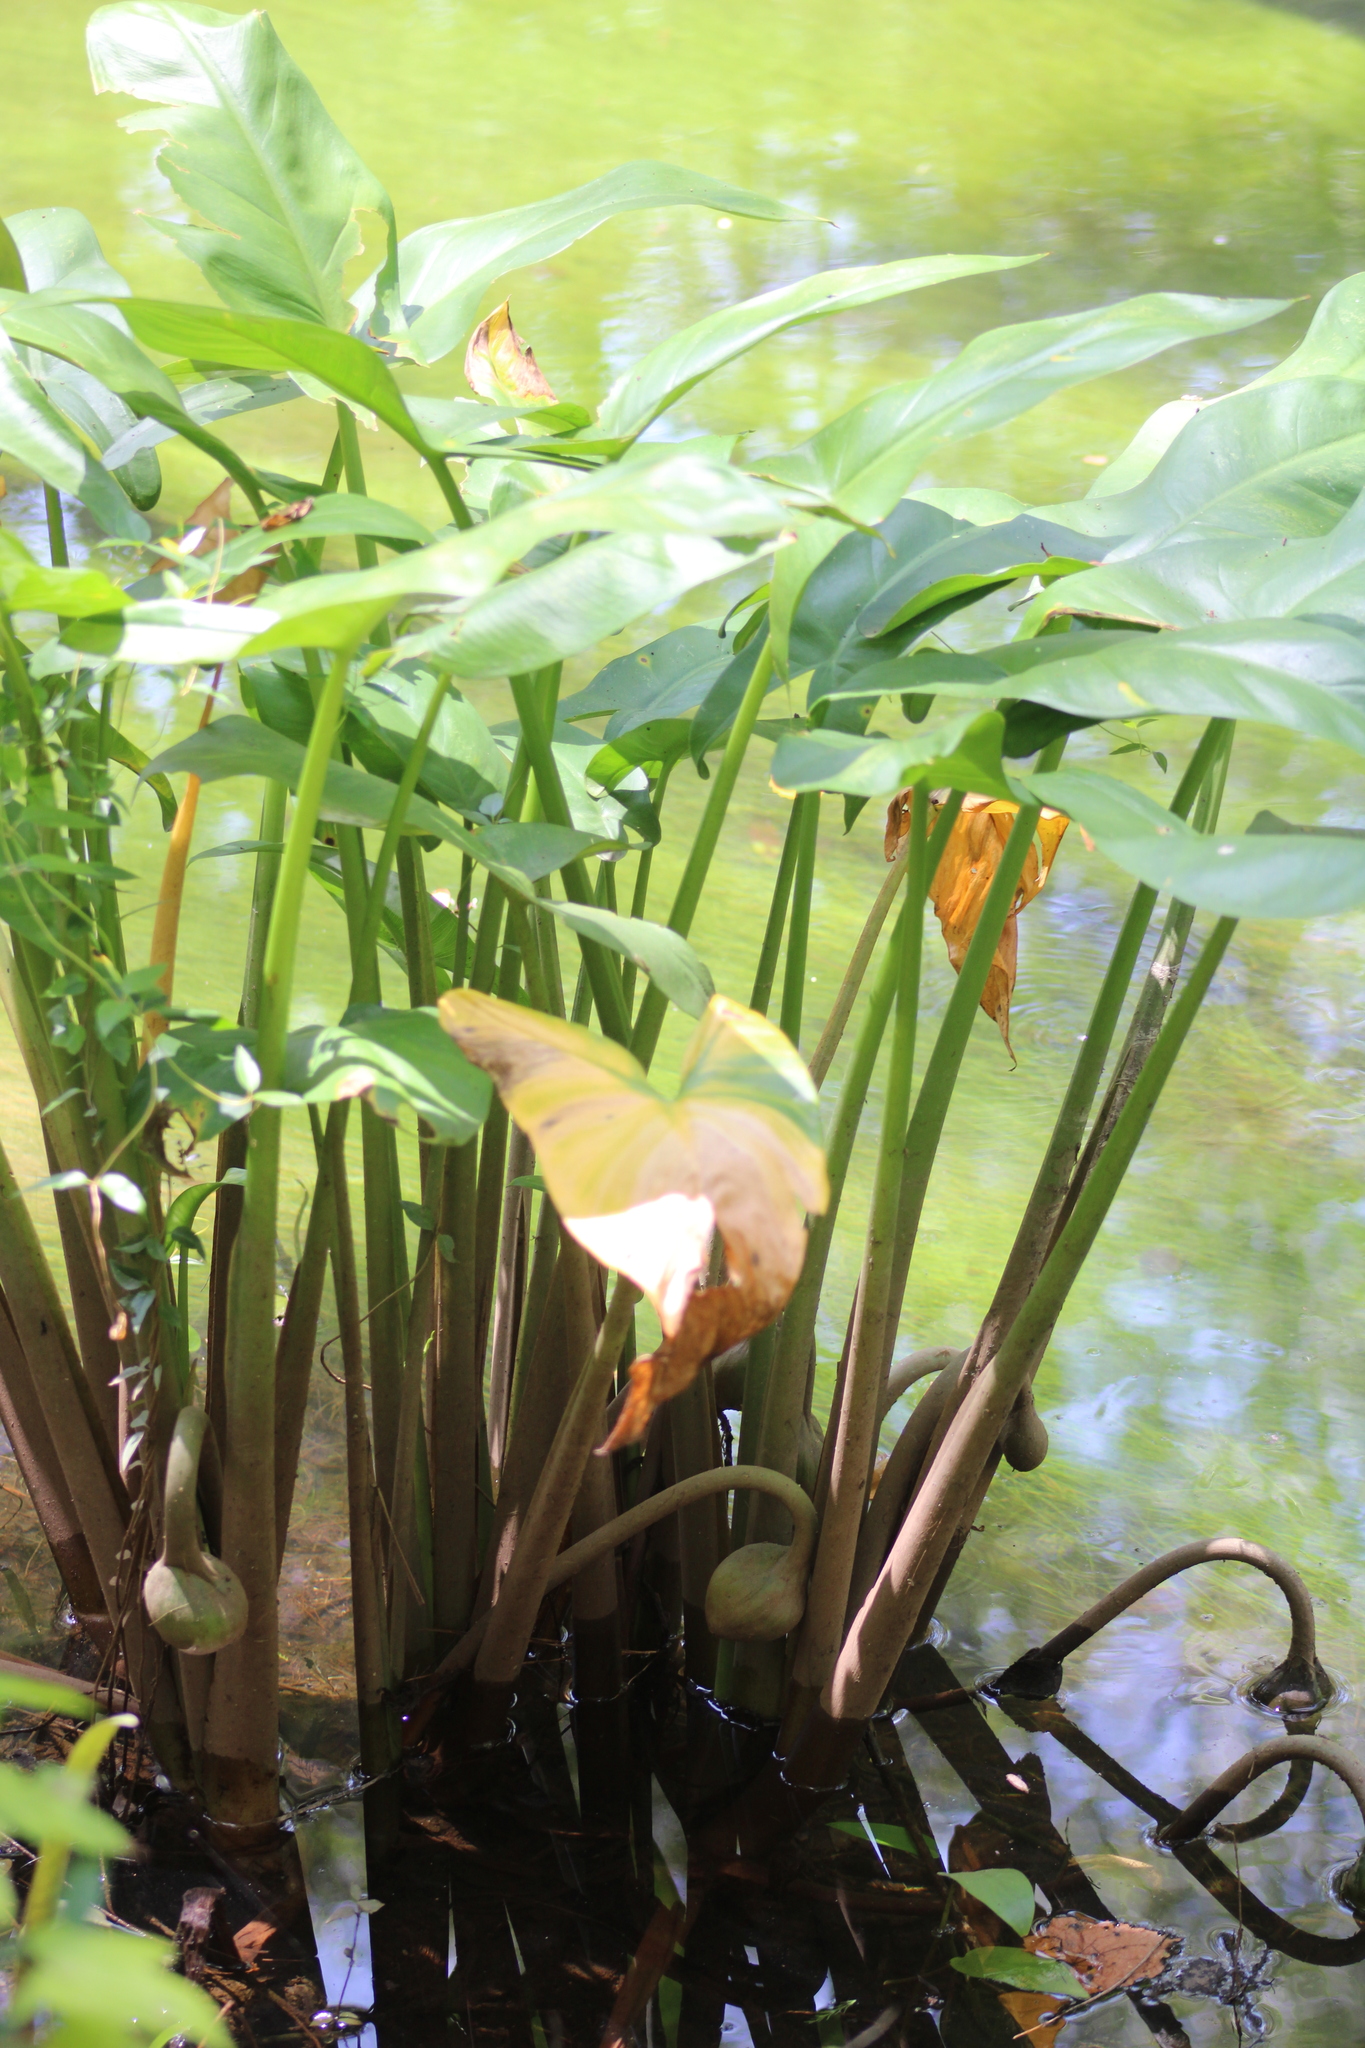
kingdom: Plantae
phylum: Tracheophyta
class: Liliopsida
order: Alismatales
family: Araceae
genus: Peltandra
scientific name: Peltandra virginica
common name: Arrow arum
